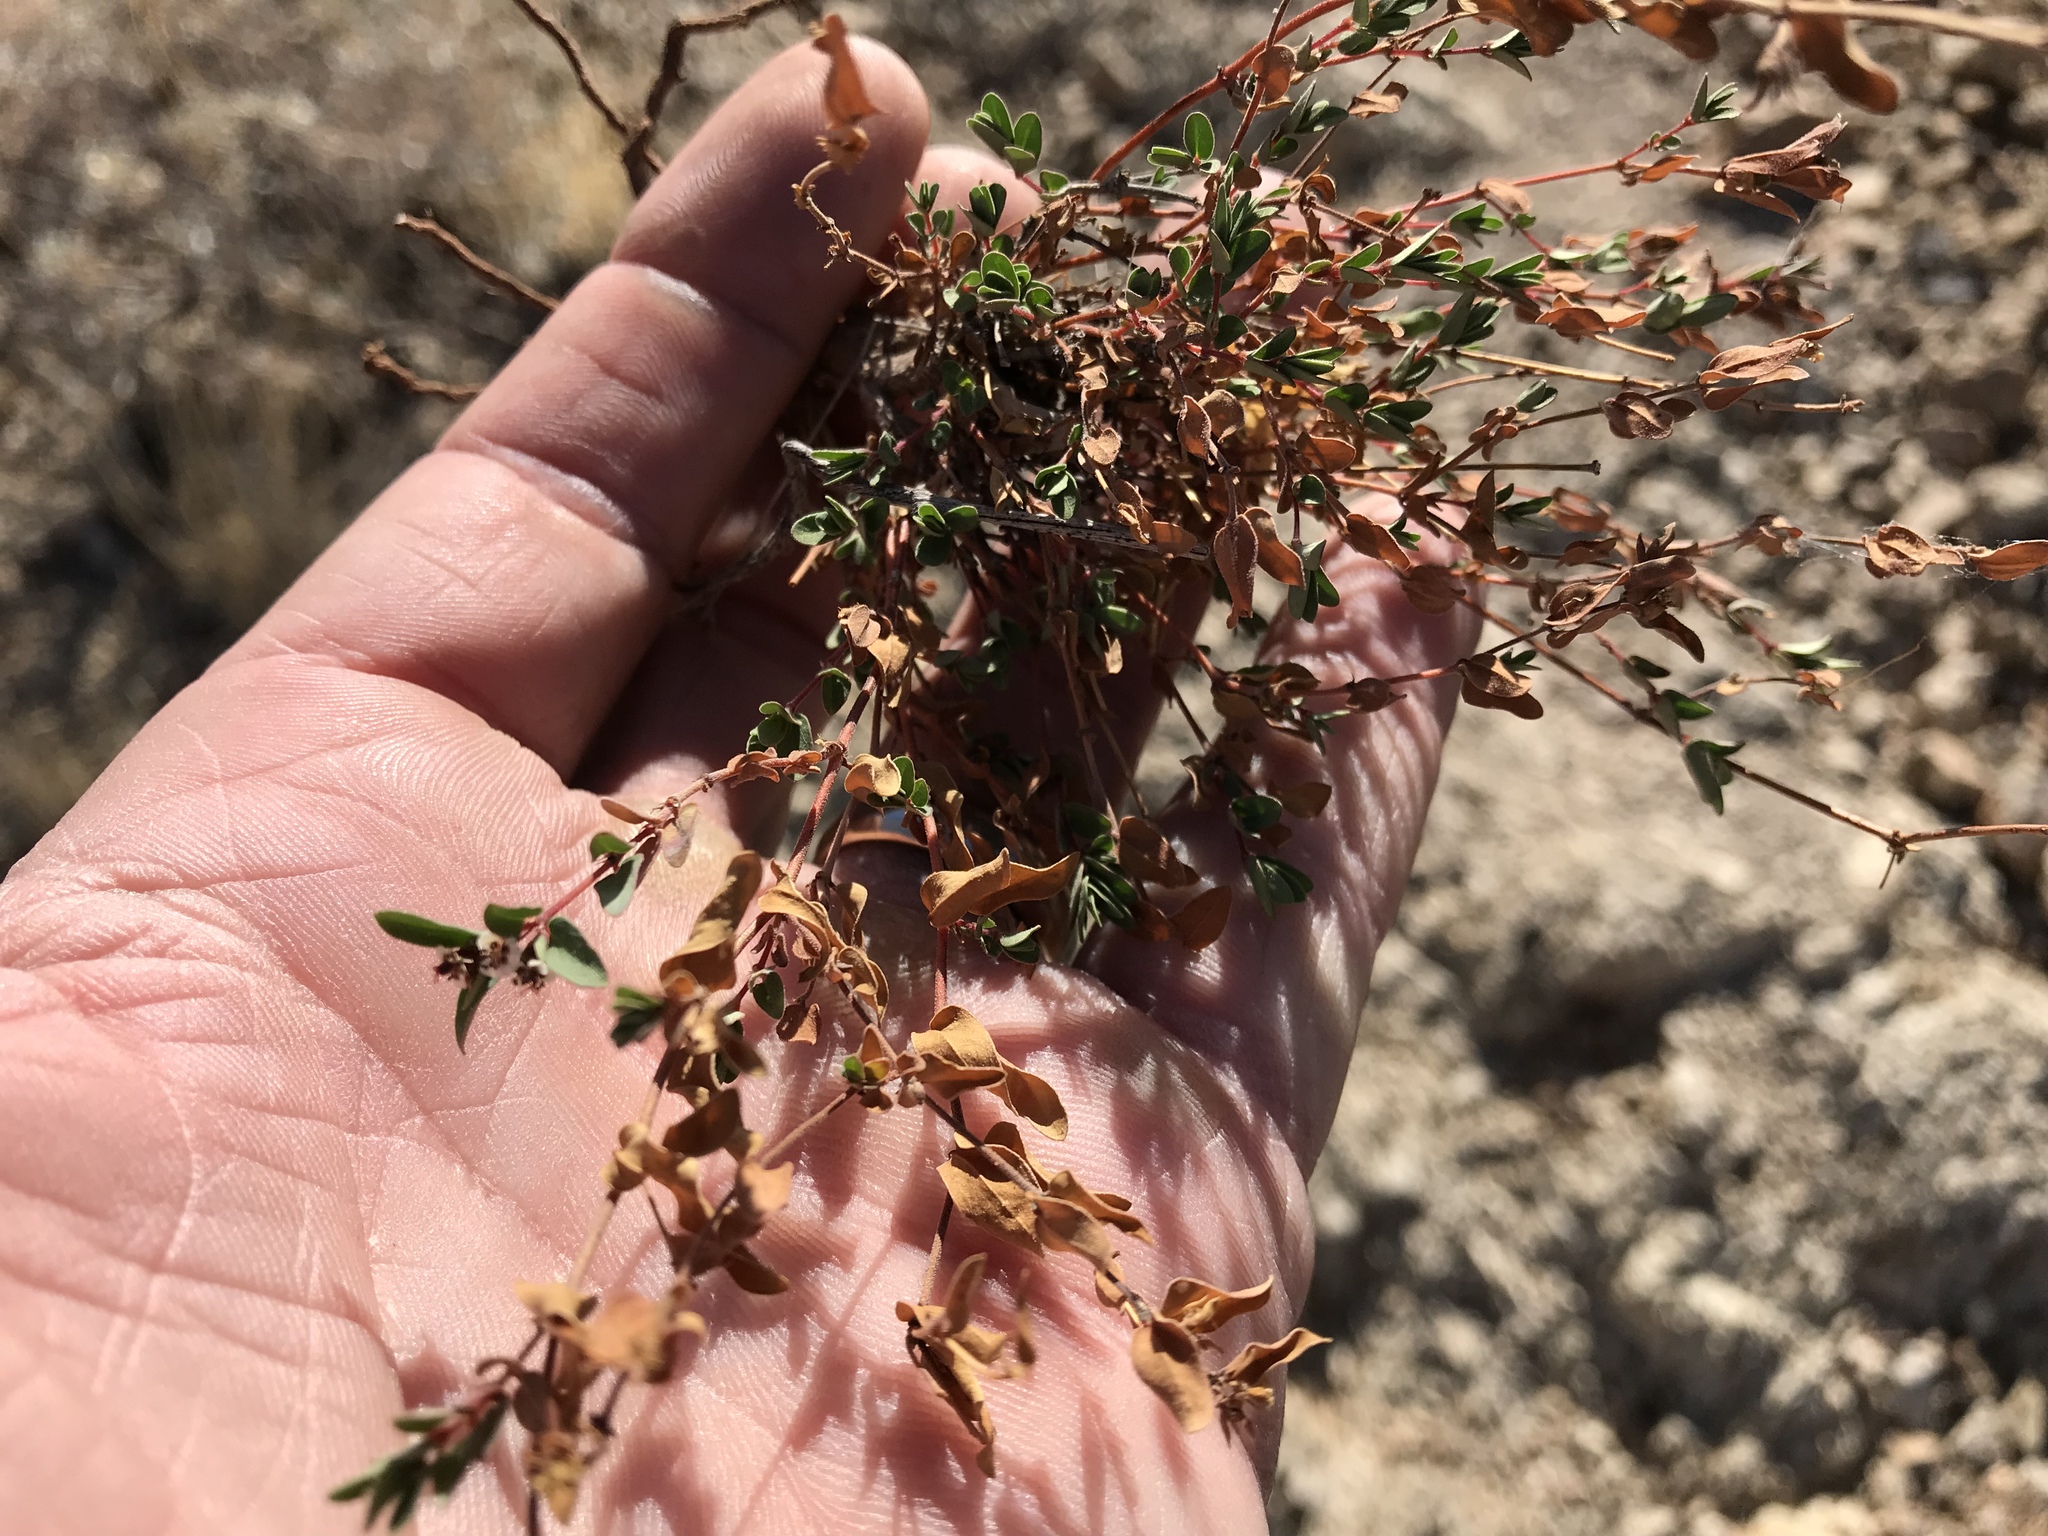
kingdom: Plantae
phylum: Tracheophyta
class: Magnoliopsida
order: Malpighiales
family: Euphorbiaceae
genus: Euphorbia
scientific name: Euphorbia capitellata
